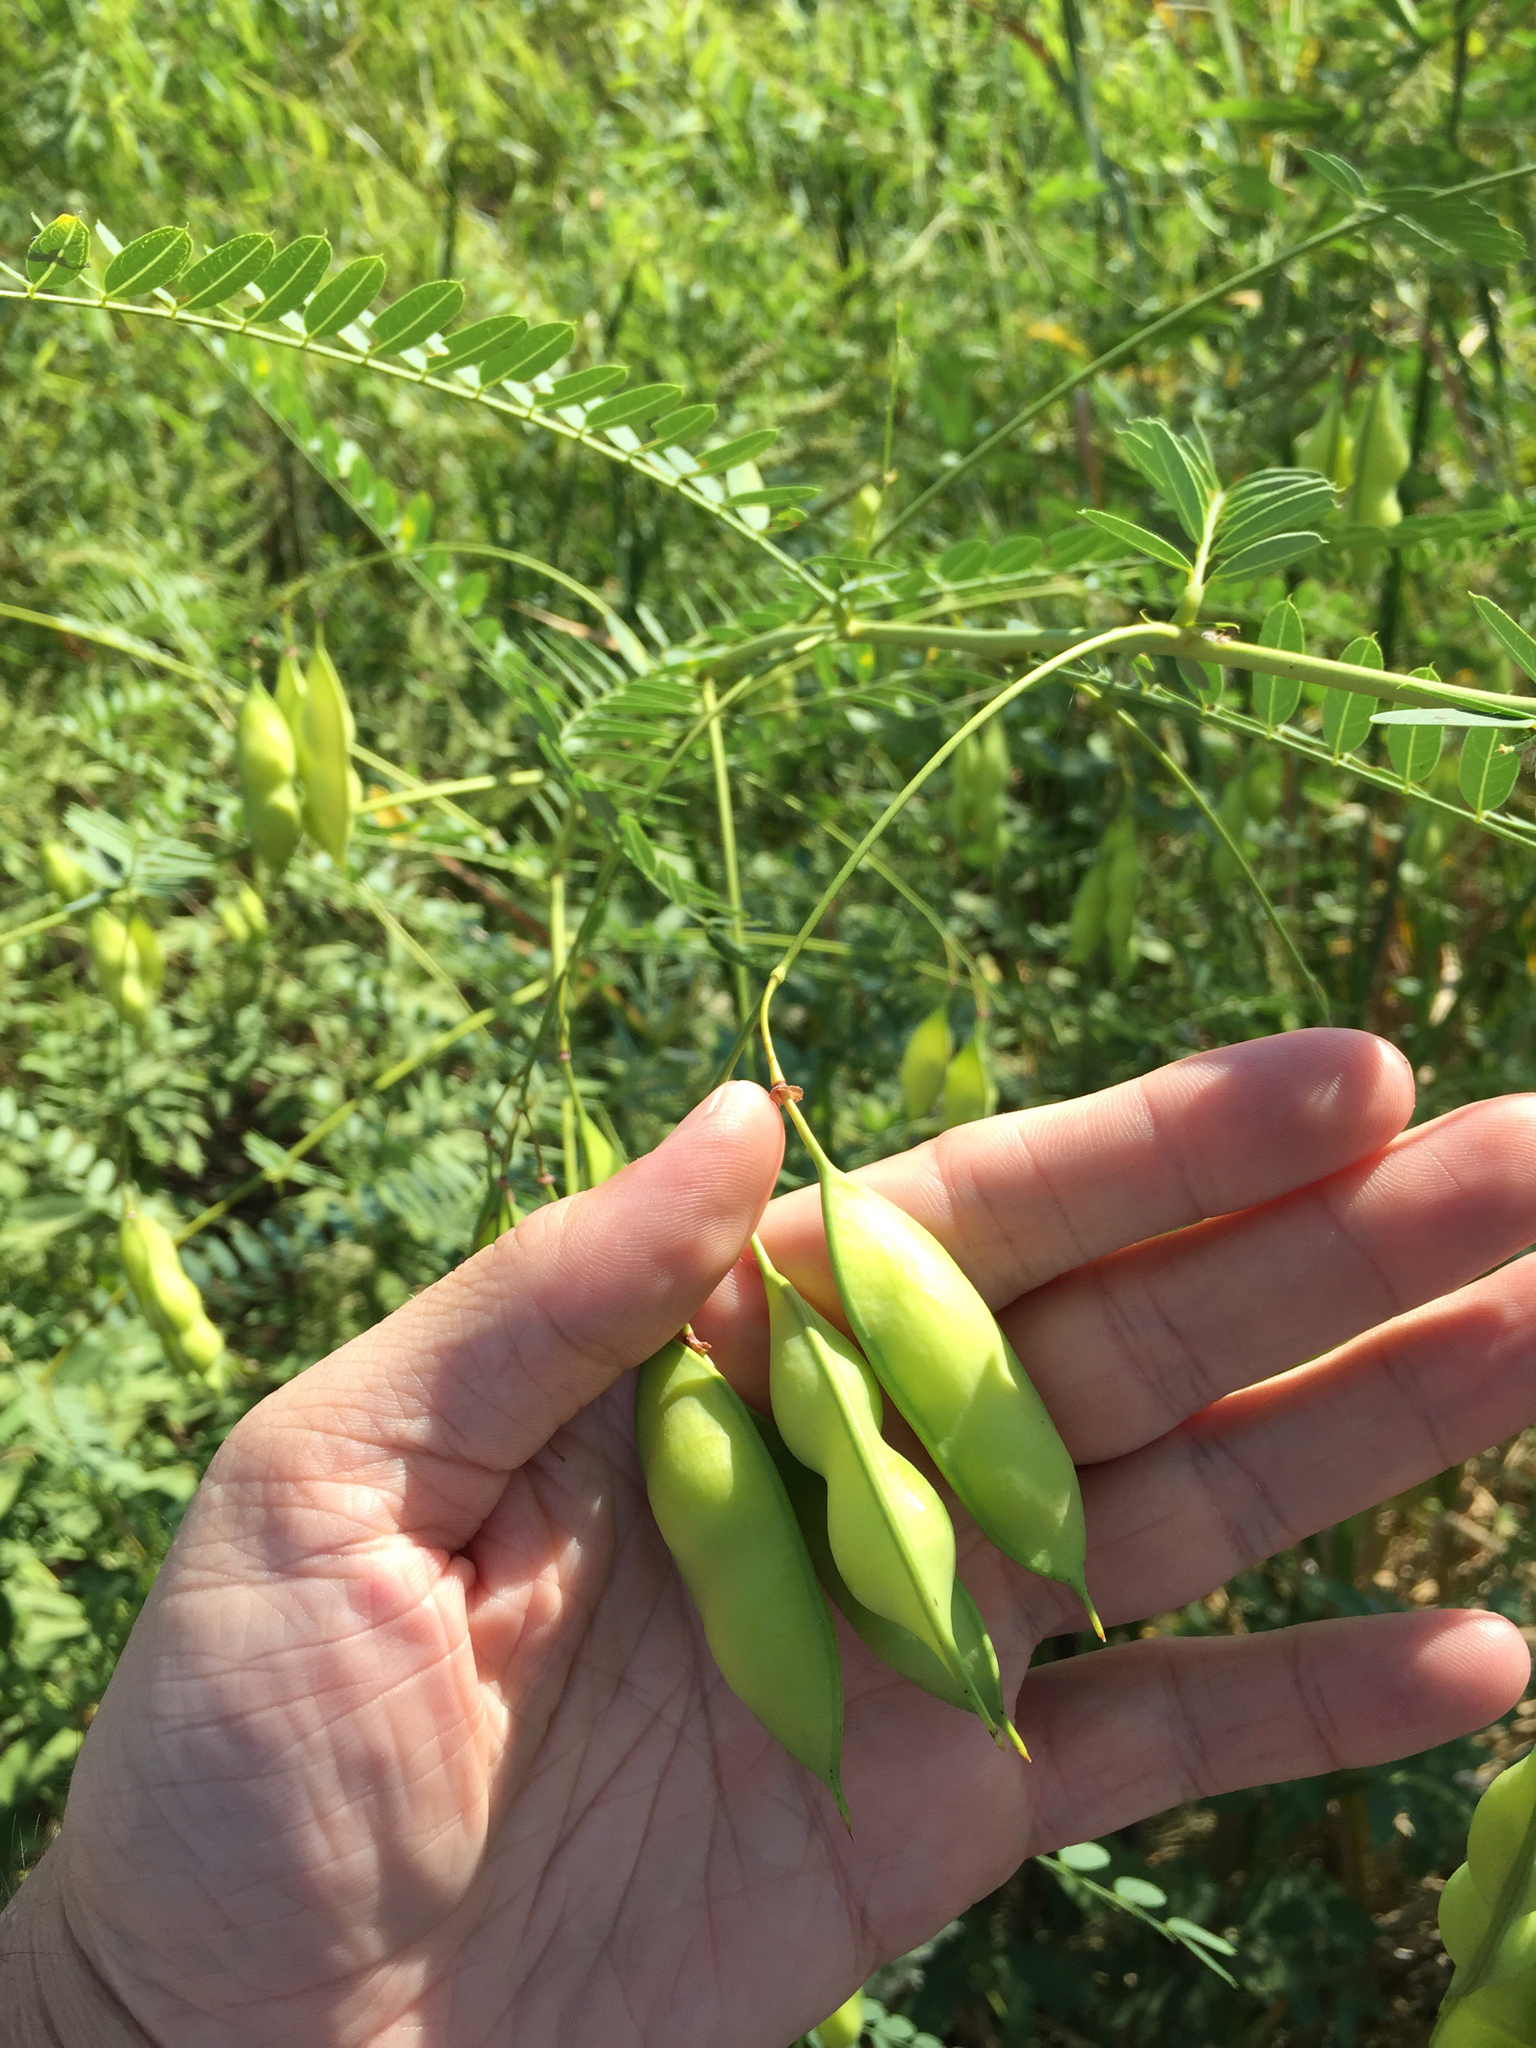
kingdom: Plantae
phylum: Tracheophyta
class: Magnoliopsida
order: Fabales
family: Fabaceae
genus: Sesbania
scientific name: Sesbania vesicaria
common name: Bagpod
